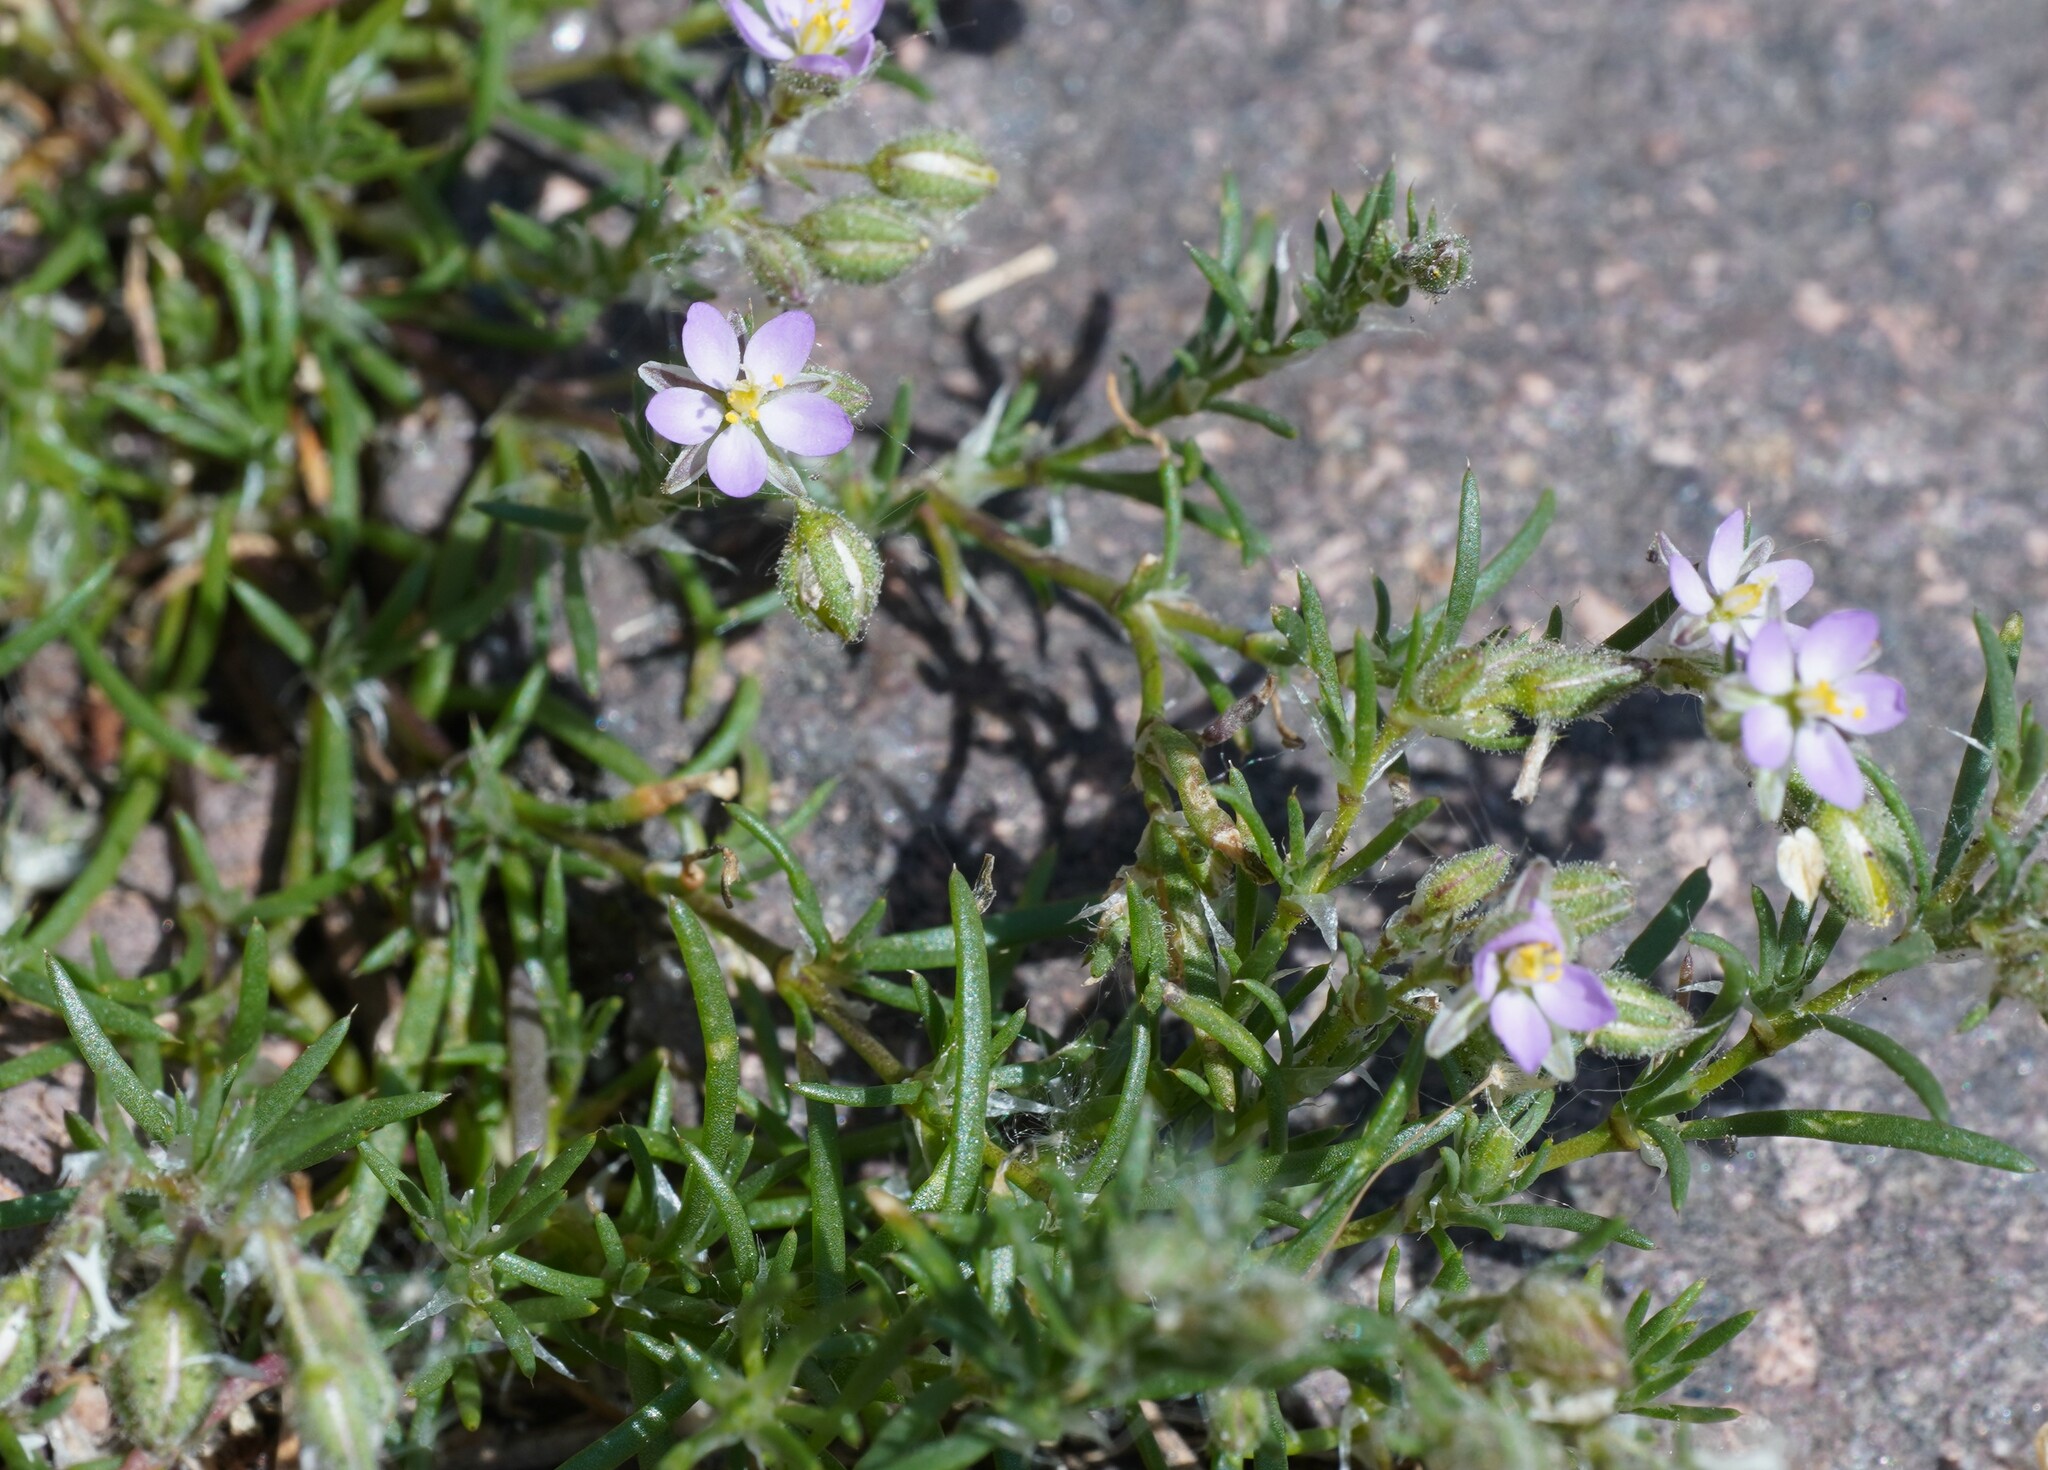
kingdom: Plantae
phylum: Tracheophyta
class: Magnoliopsida
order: Caryophyllales
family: Caryophyllaceae
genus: Spergularia
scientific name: Spergularia rubra
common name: Red sand-spurrey
